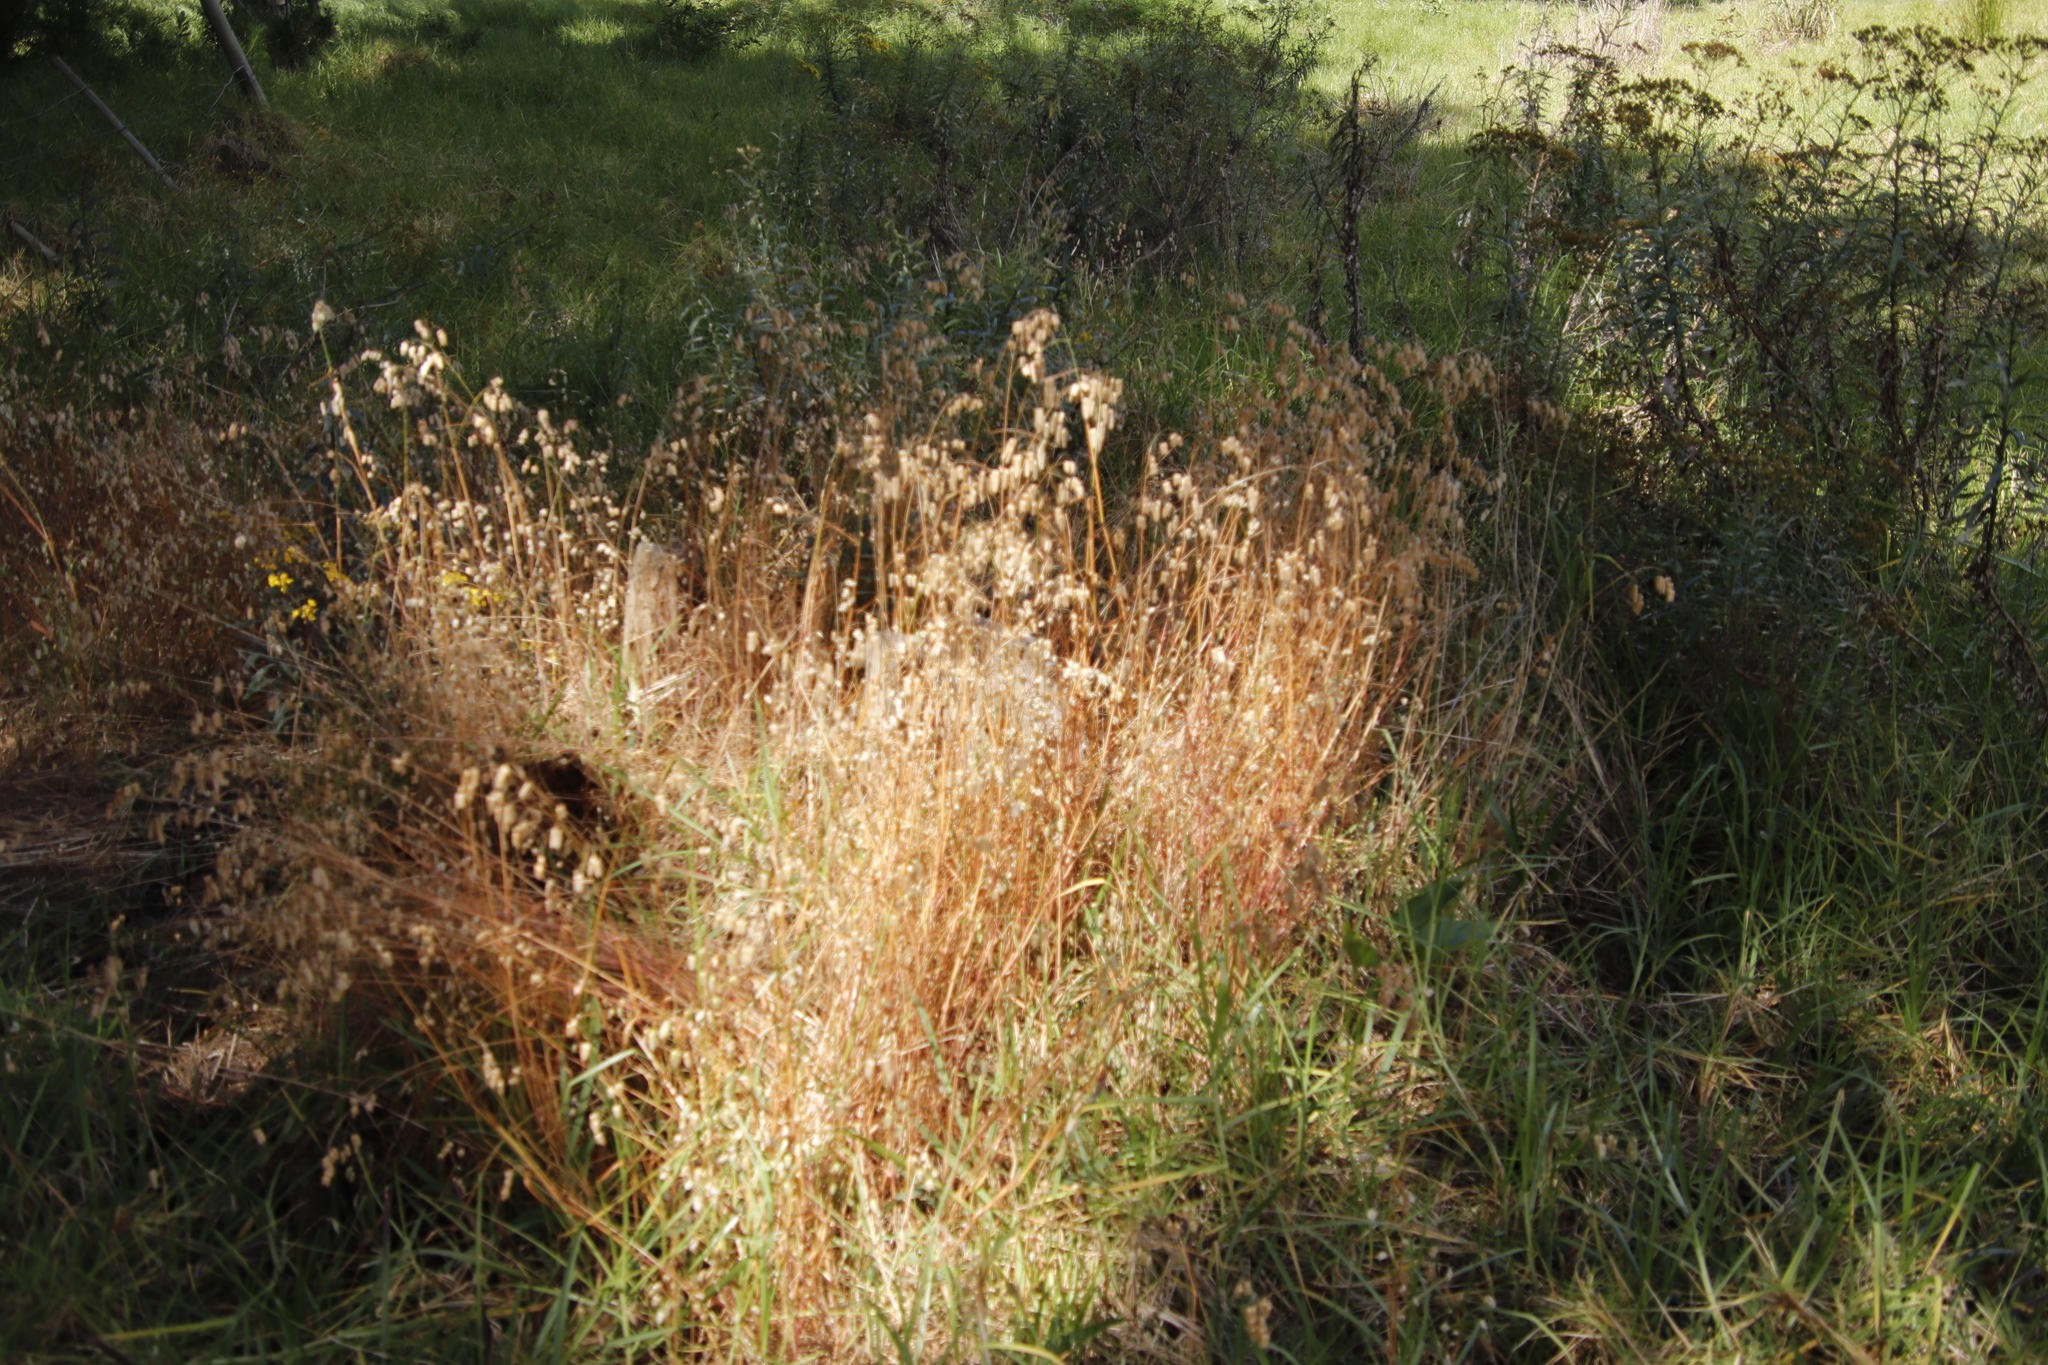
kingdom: Plantae
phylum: Tracheophyta
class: Liliopsida
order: Poales
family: Poaceae
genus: Briza
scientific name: Briza maxima
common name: Big quakinggrass
